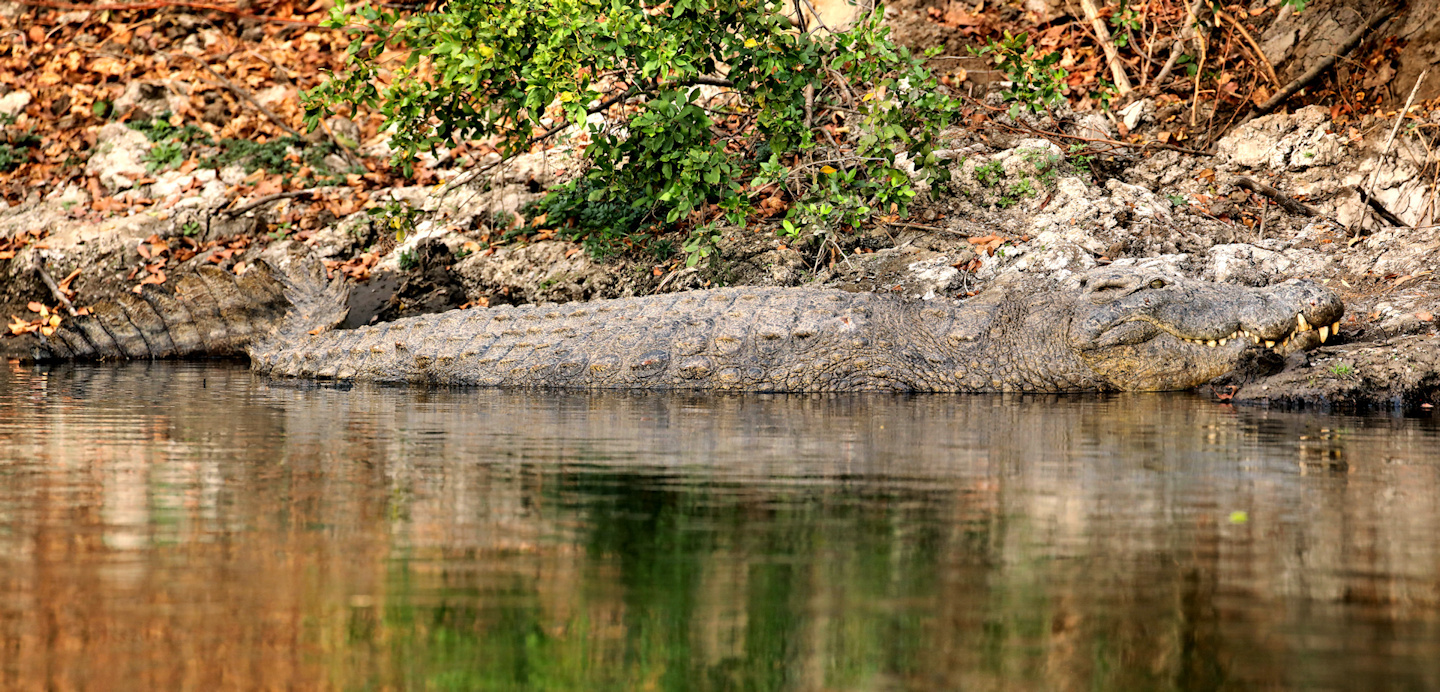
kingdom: Animalia
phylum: Chordata
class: Crocodylia
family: Crocodylidae
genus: Crocodylus
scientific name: Crocodylus niloticus
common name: Nile crocodile
